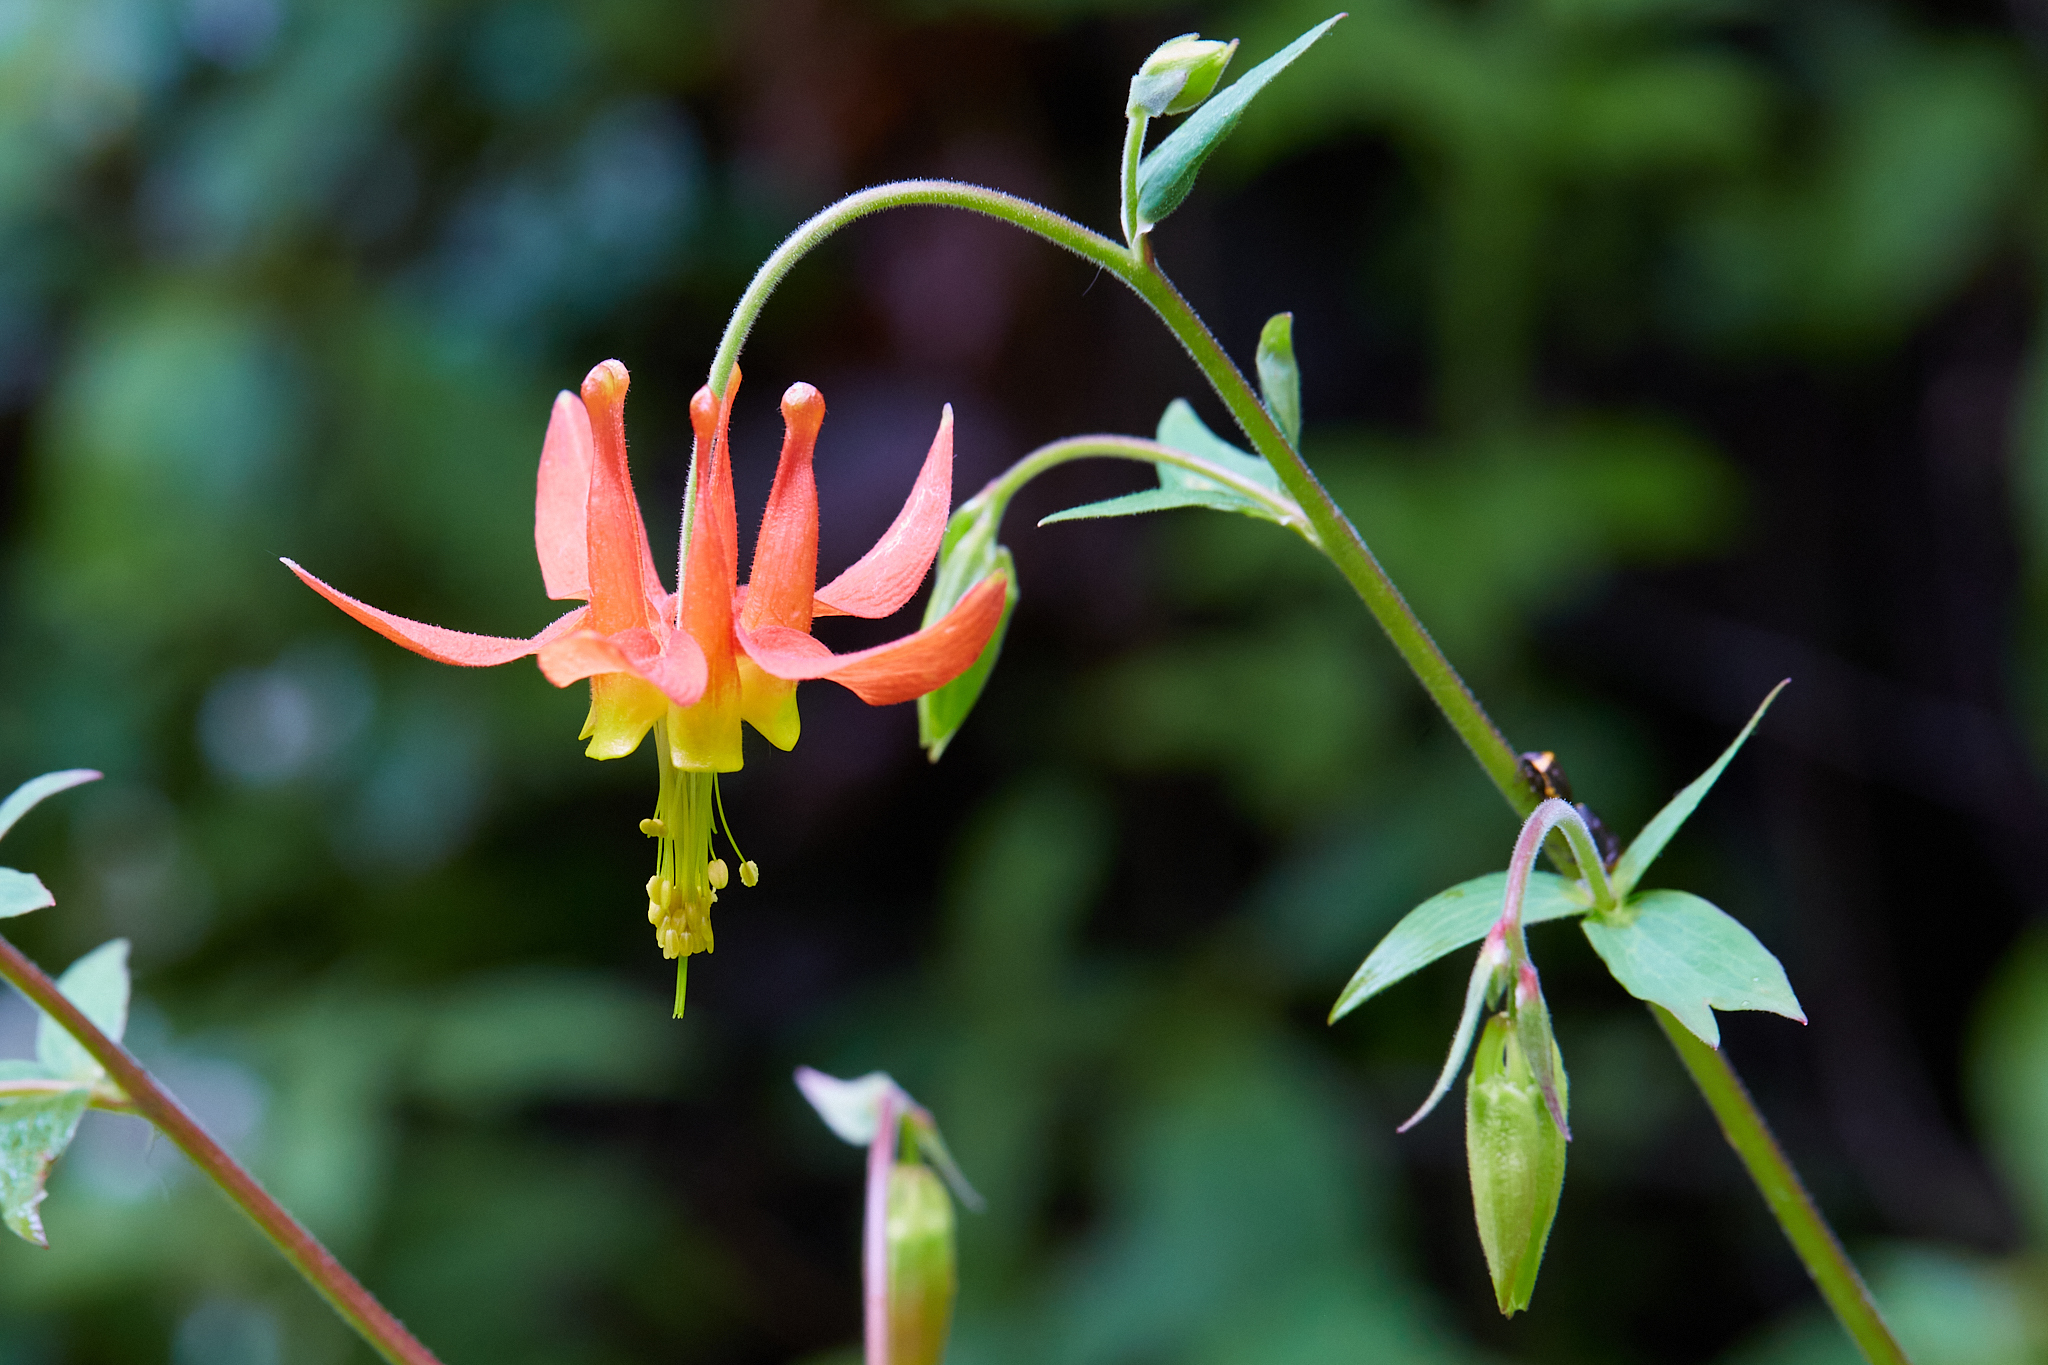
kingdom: Plantae
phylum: Tracheophyta
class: Magnoliopsida
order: Ranunculales
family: Ranunculaceae
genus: Aquilegia
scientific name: Aquilegia formosa
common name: Sitka columbine
